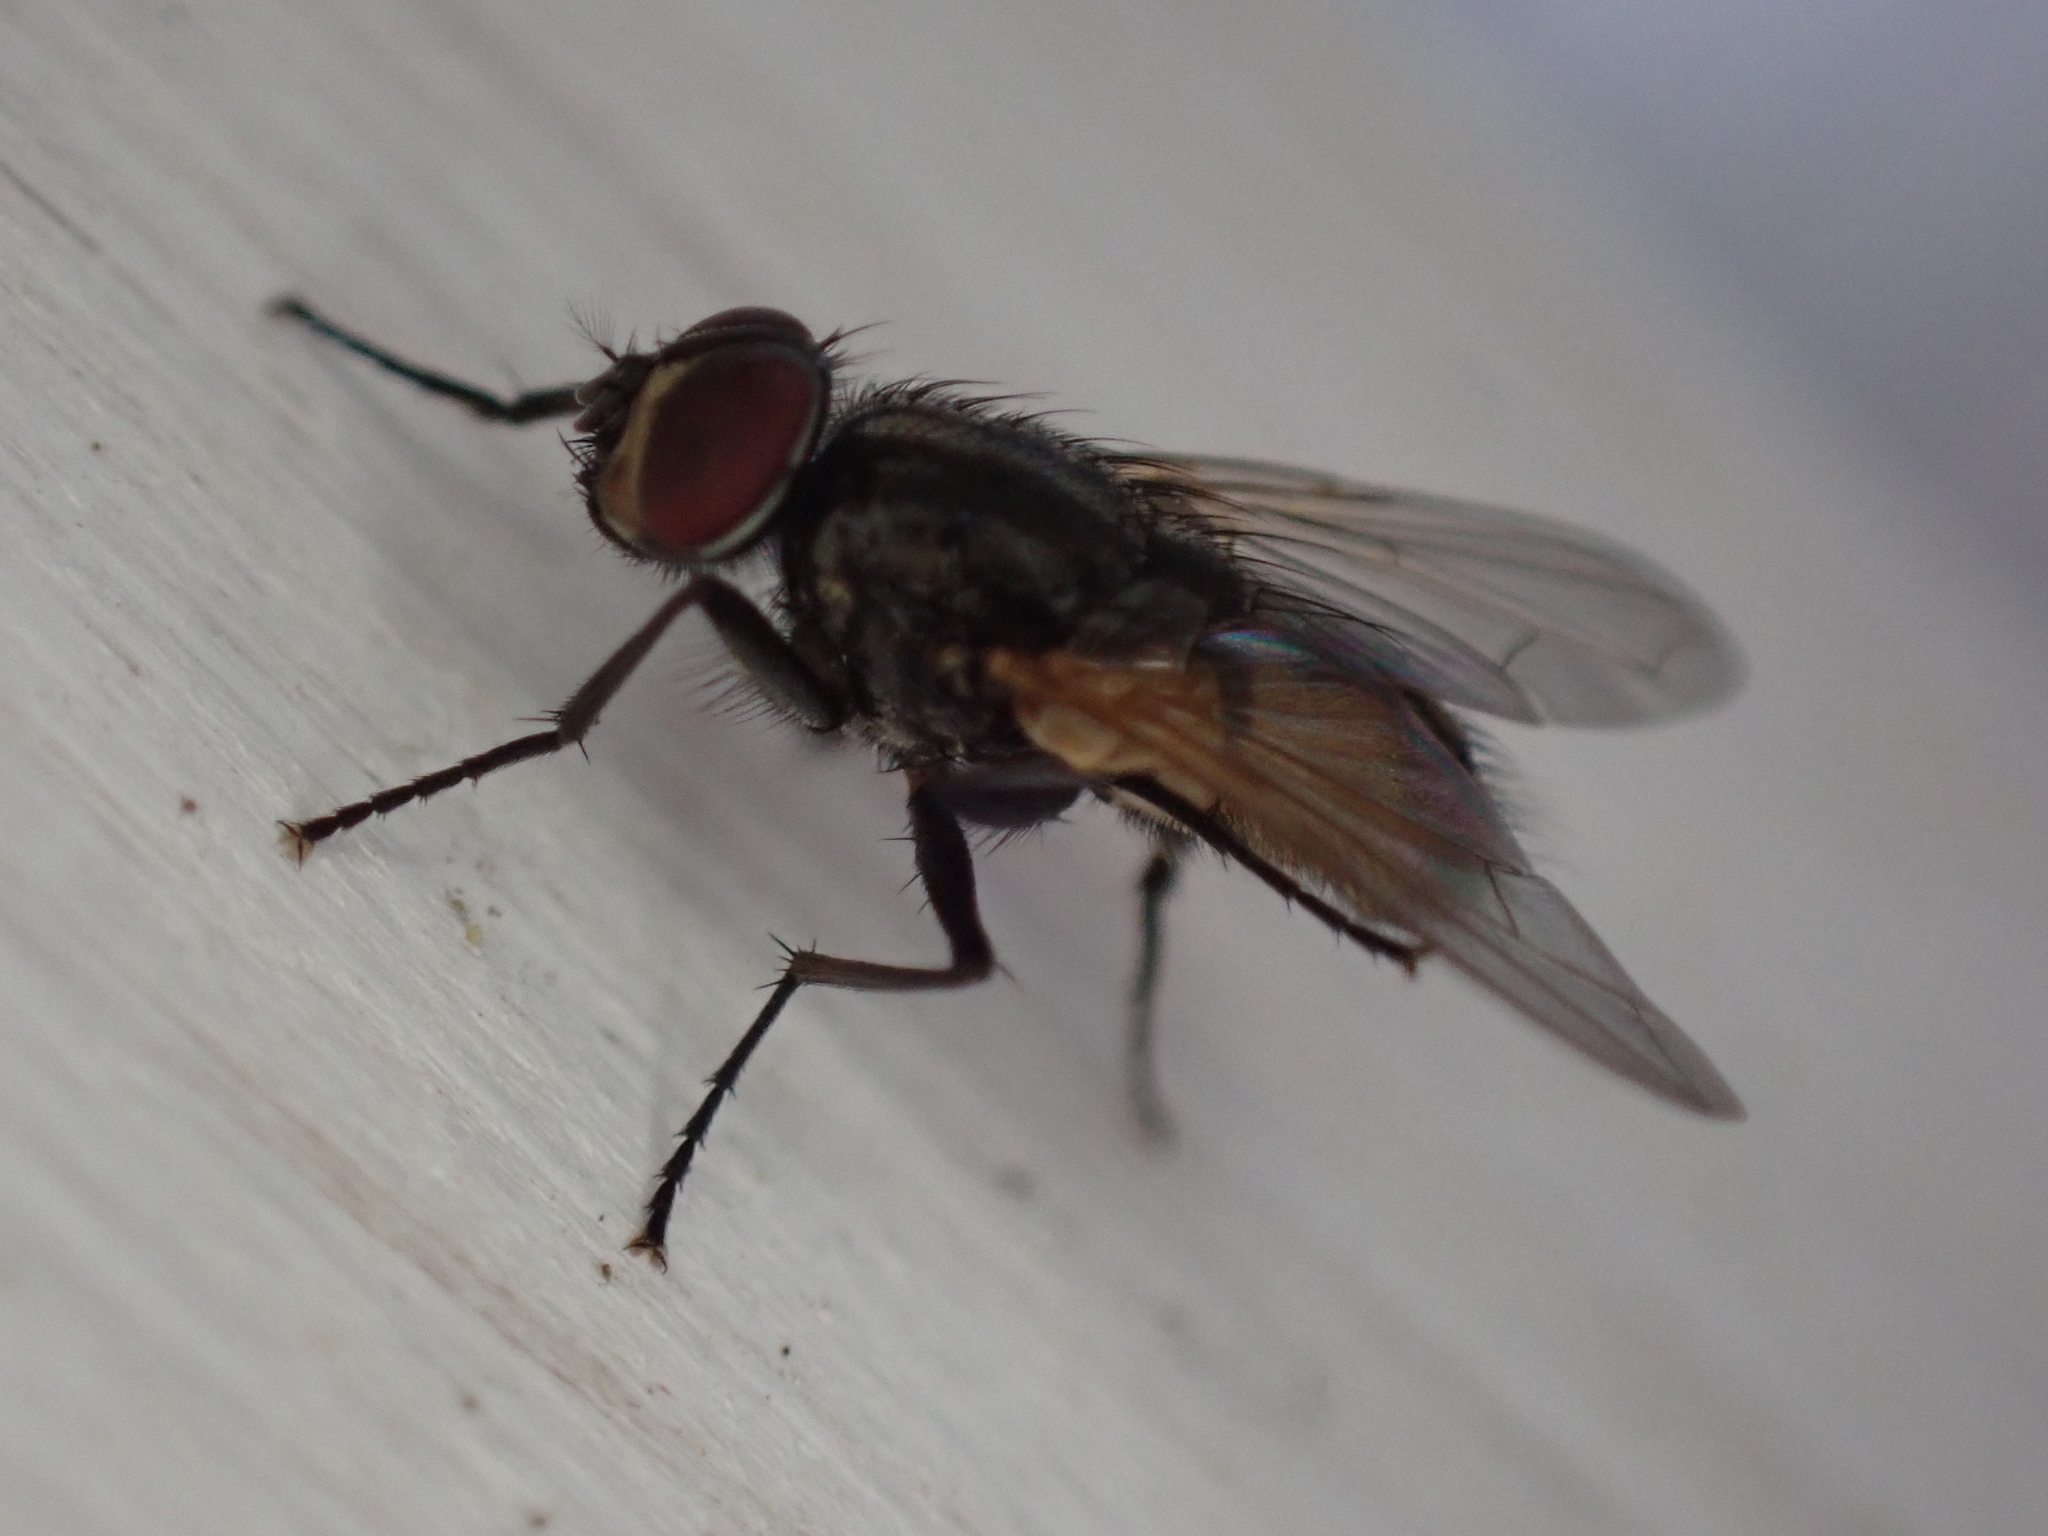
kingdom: Animalia
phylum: Arthropoda
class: Insecta
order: Diptera
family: Muscidae
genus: Musca
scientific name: Musca domestica
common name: House fly
